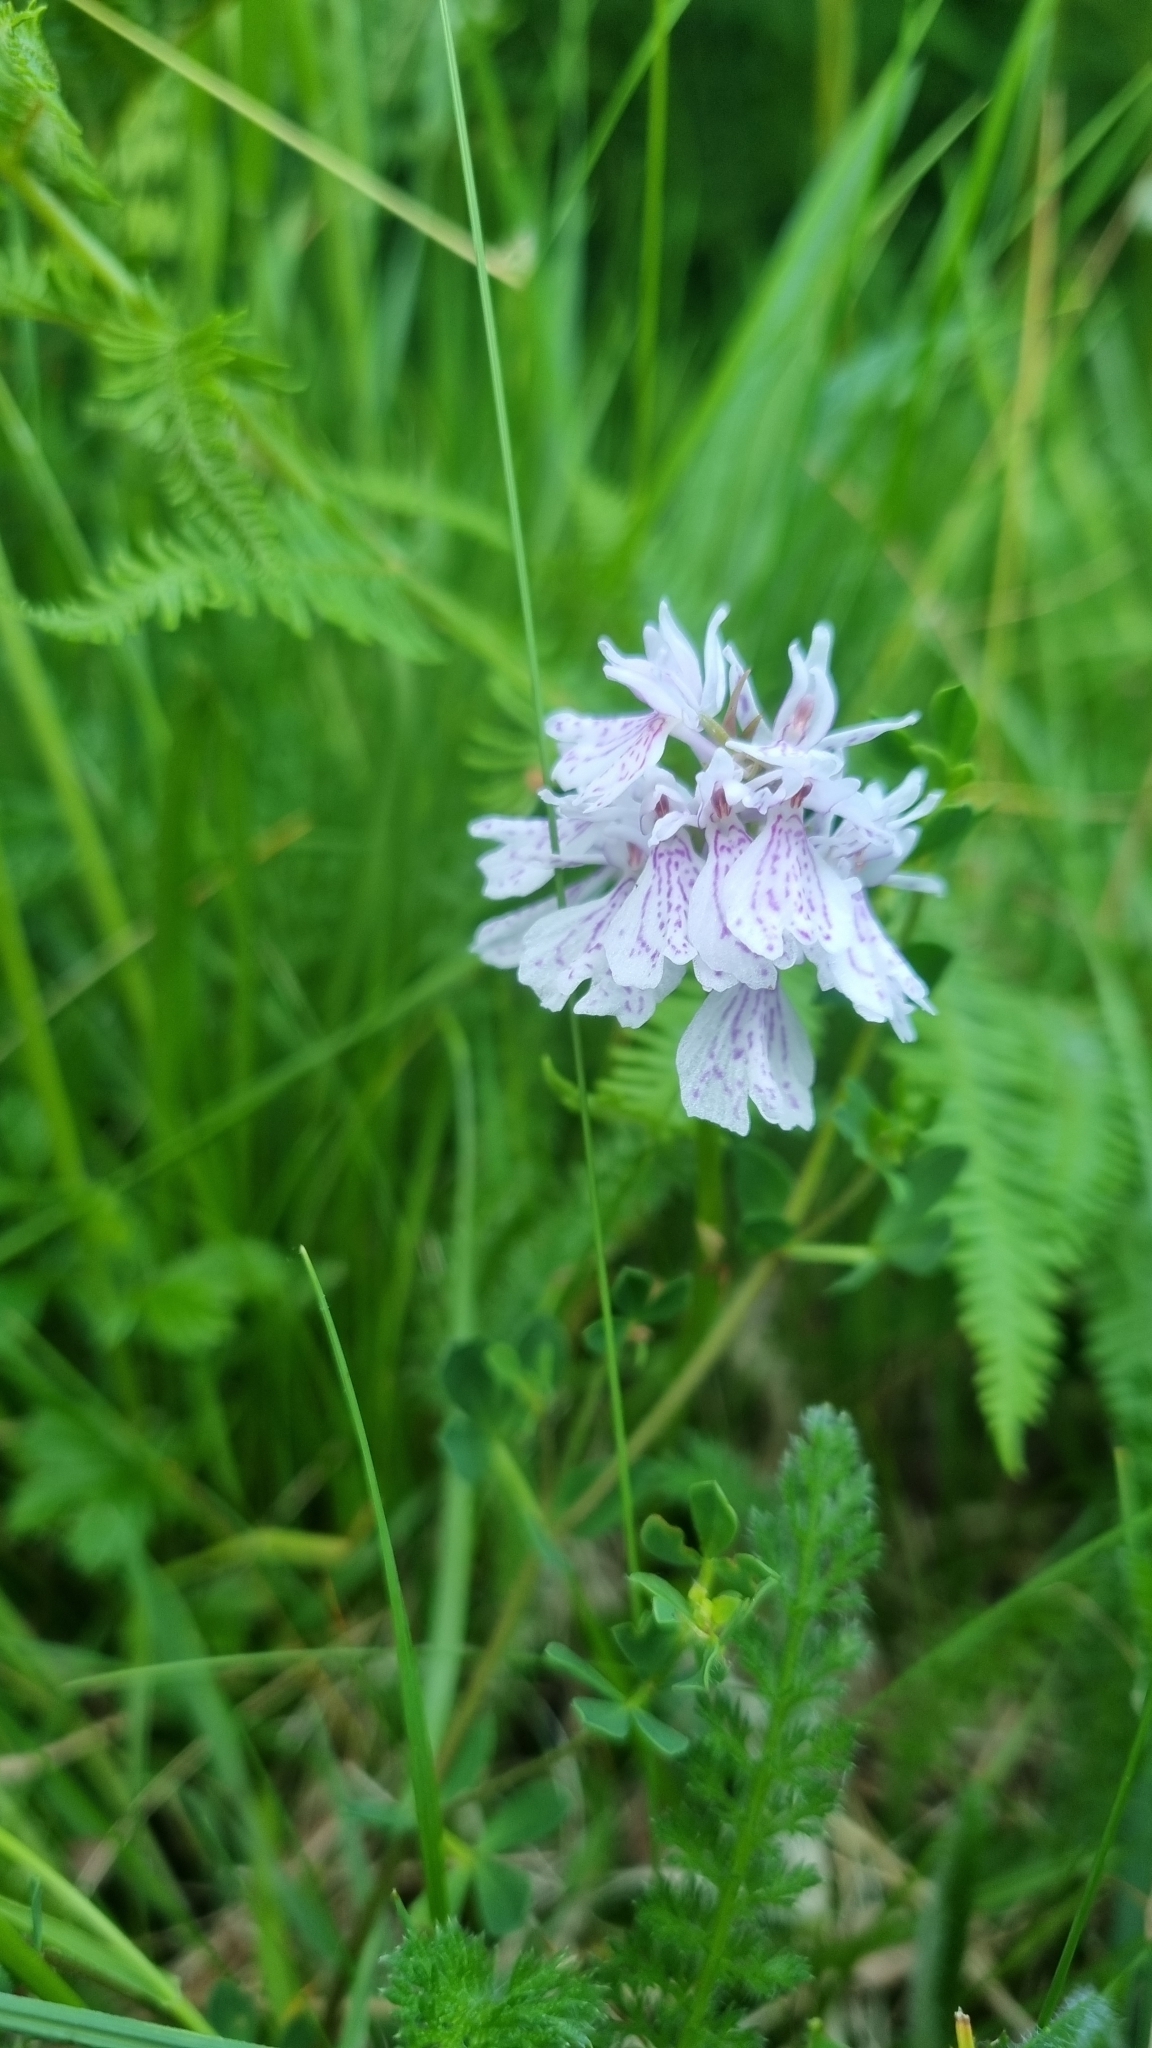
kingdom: Plantae
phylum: Tracheophyta
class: Liliopsida
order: Asparagales
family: Orchidaceae
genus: Dactylorhiza
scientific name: Dactylorhiza maculata
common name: Heath spotted-orchid
